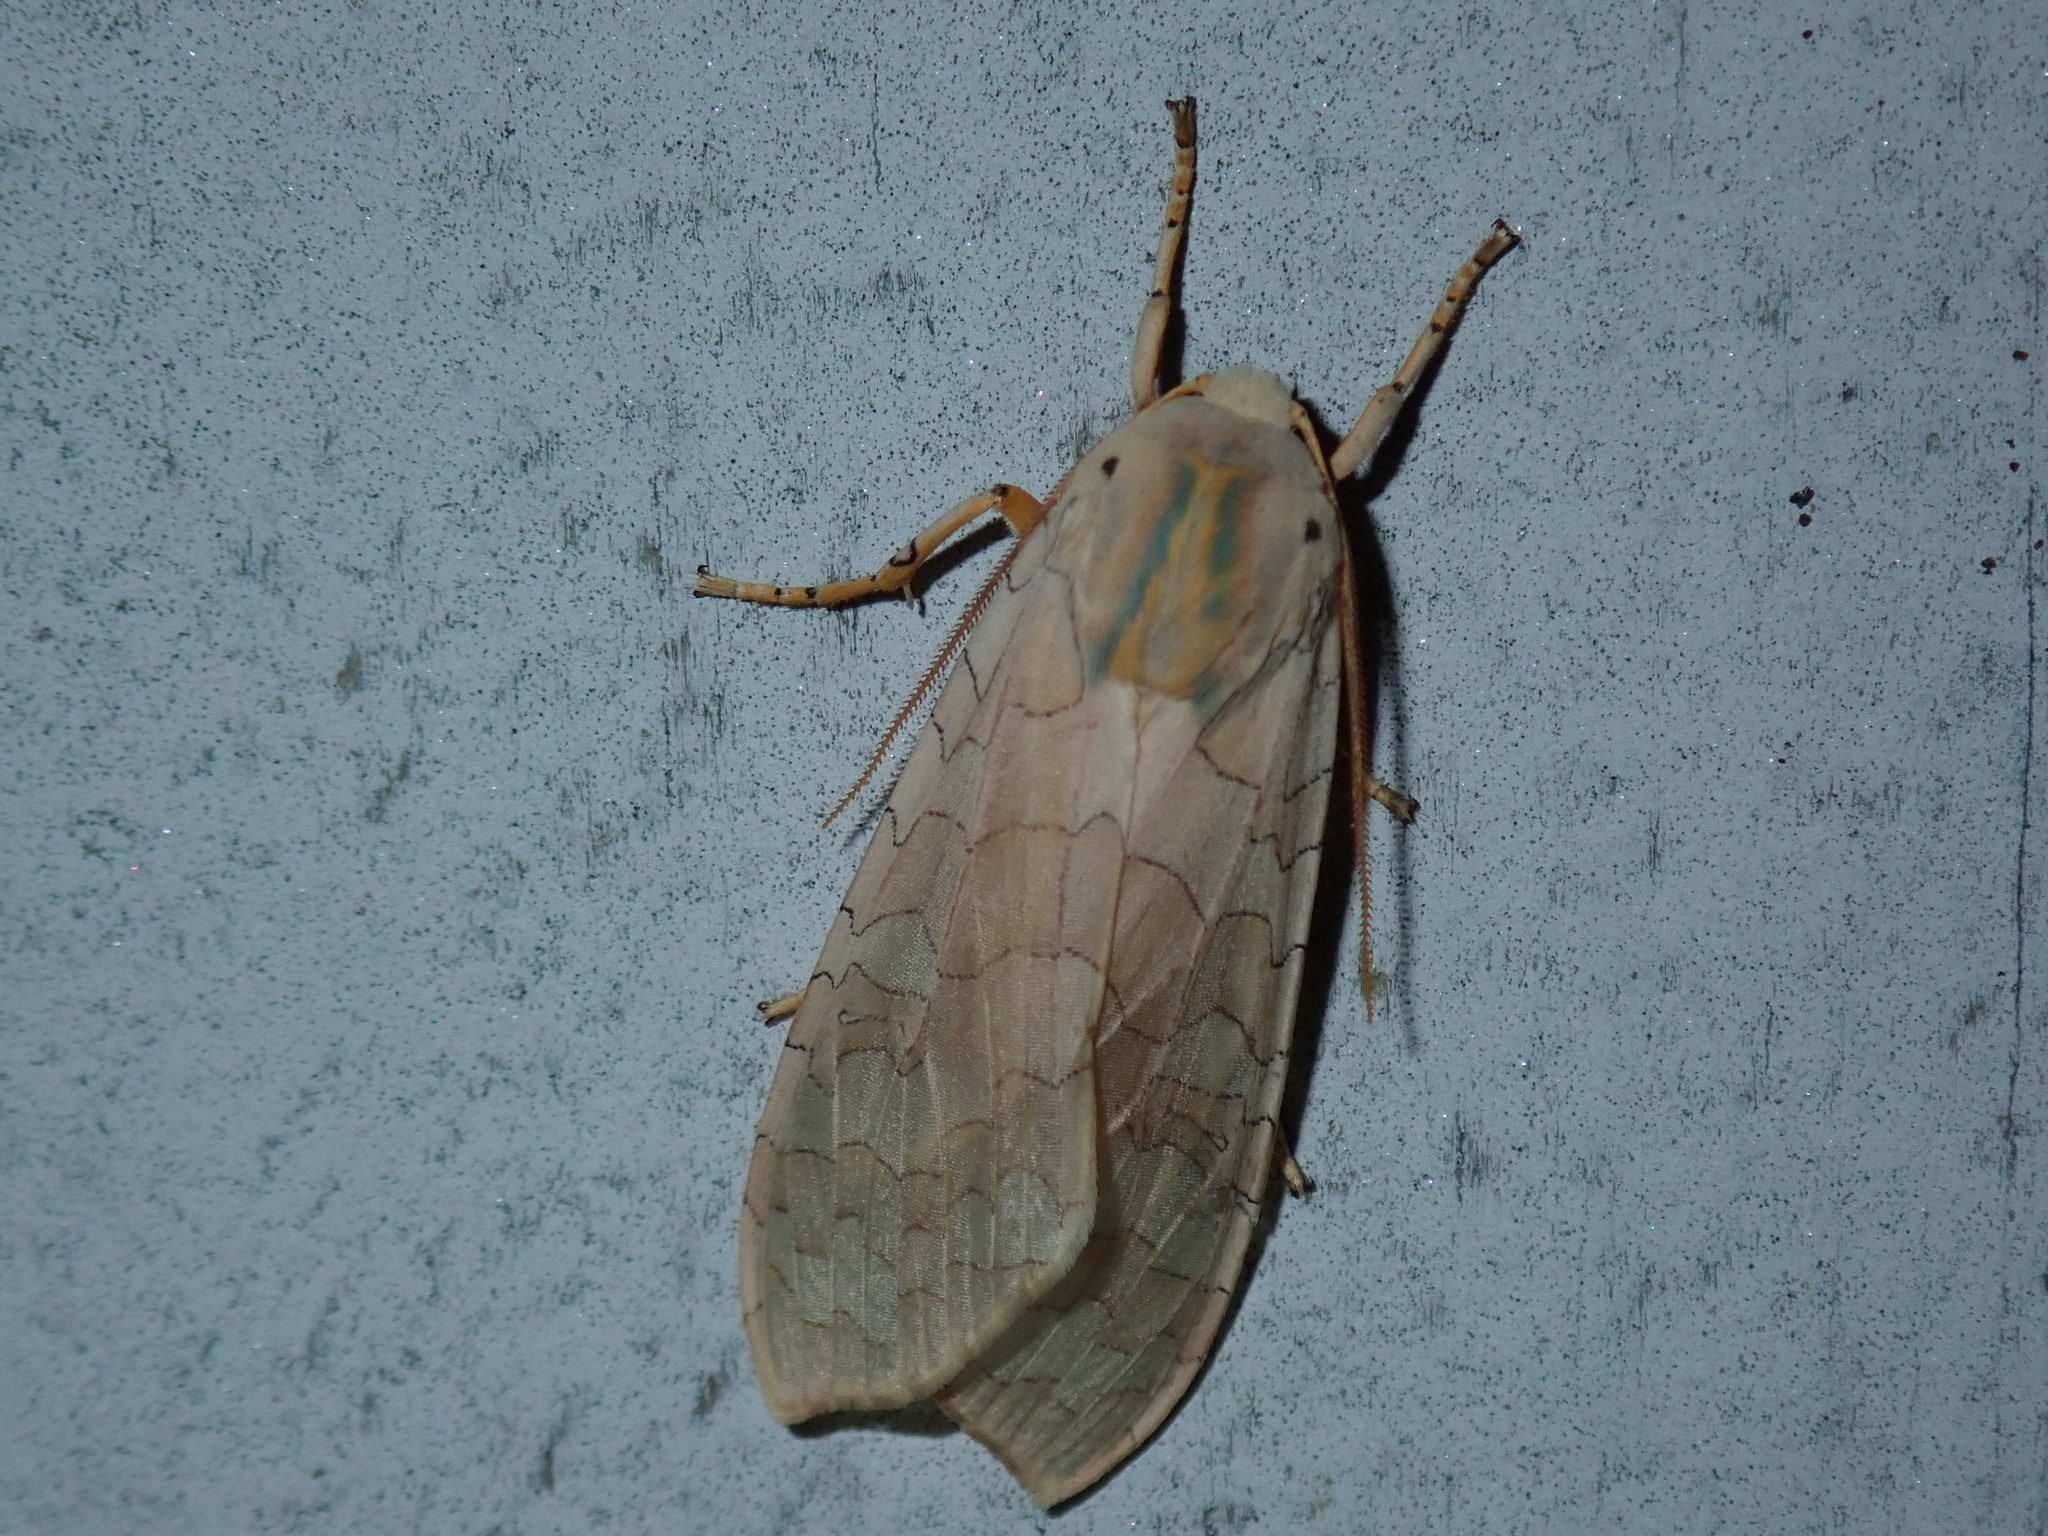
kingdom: Animalia
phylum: Arthropoda
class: Insecta
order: Lepidoptera
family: Erebidae
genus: Halysidota
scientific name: Halysidota
